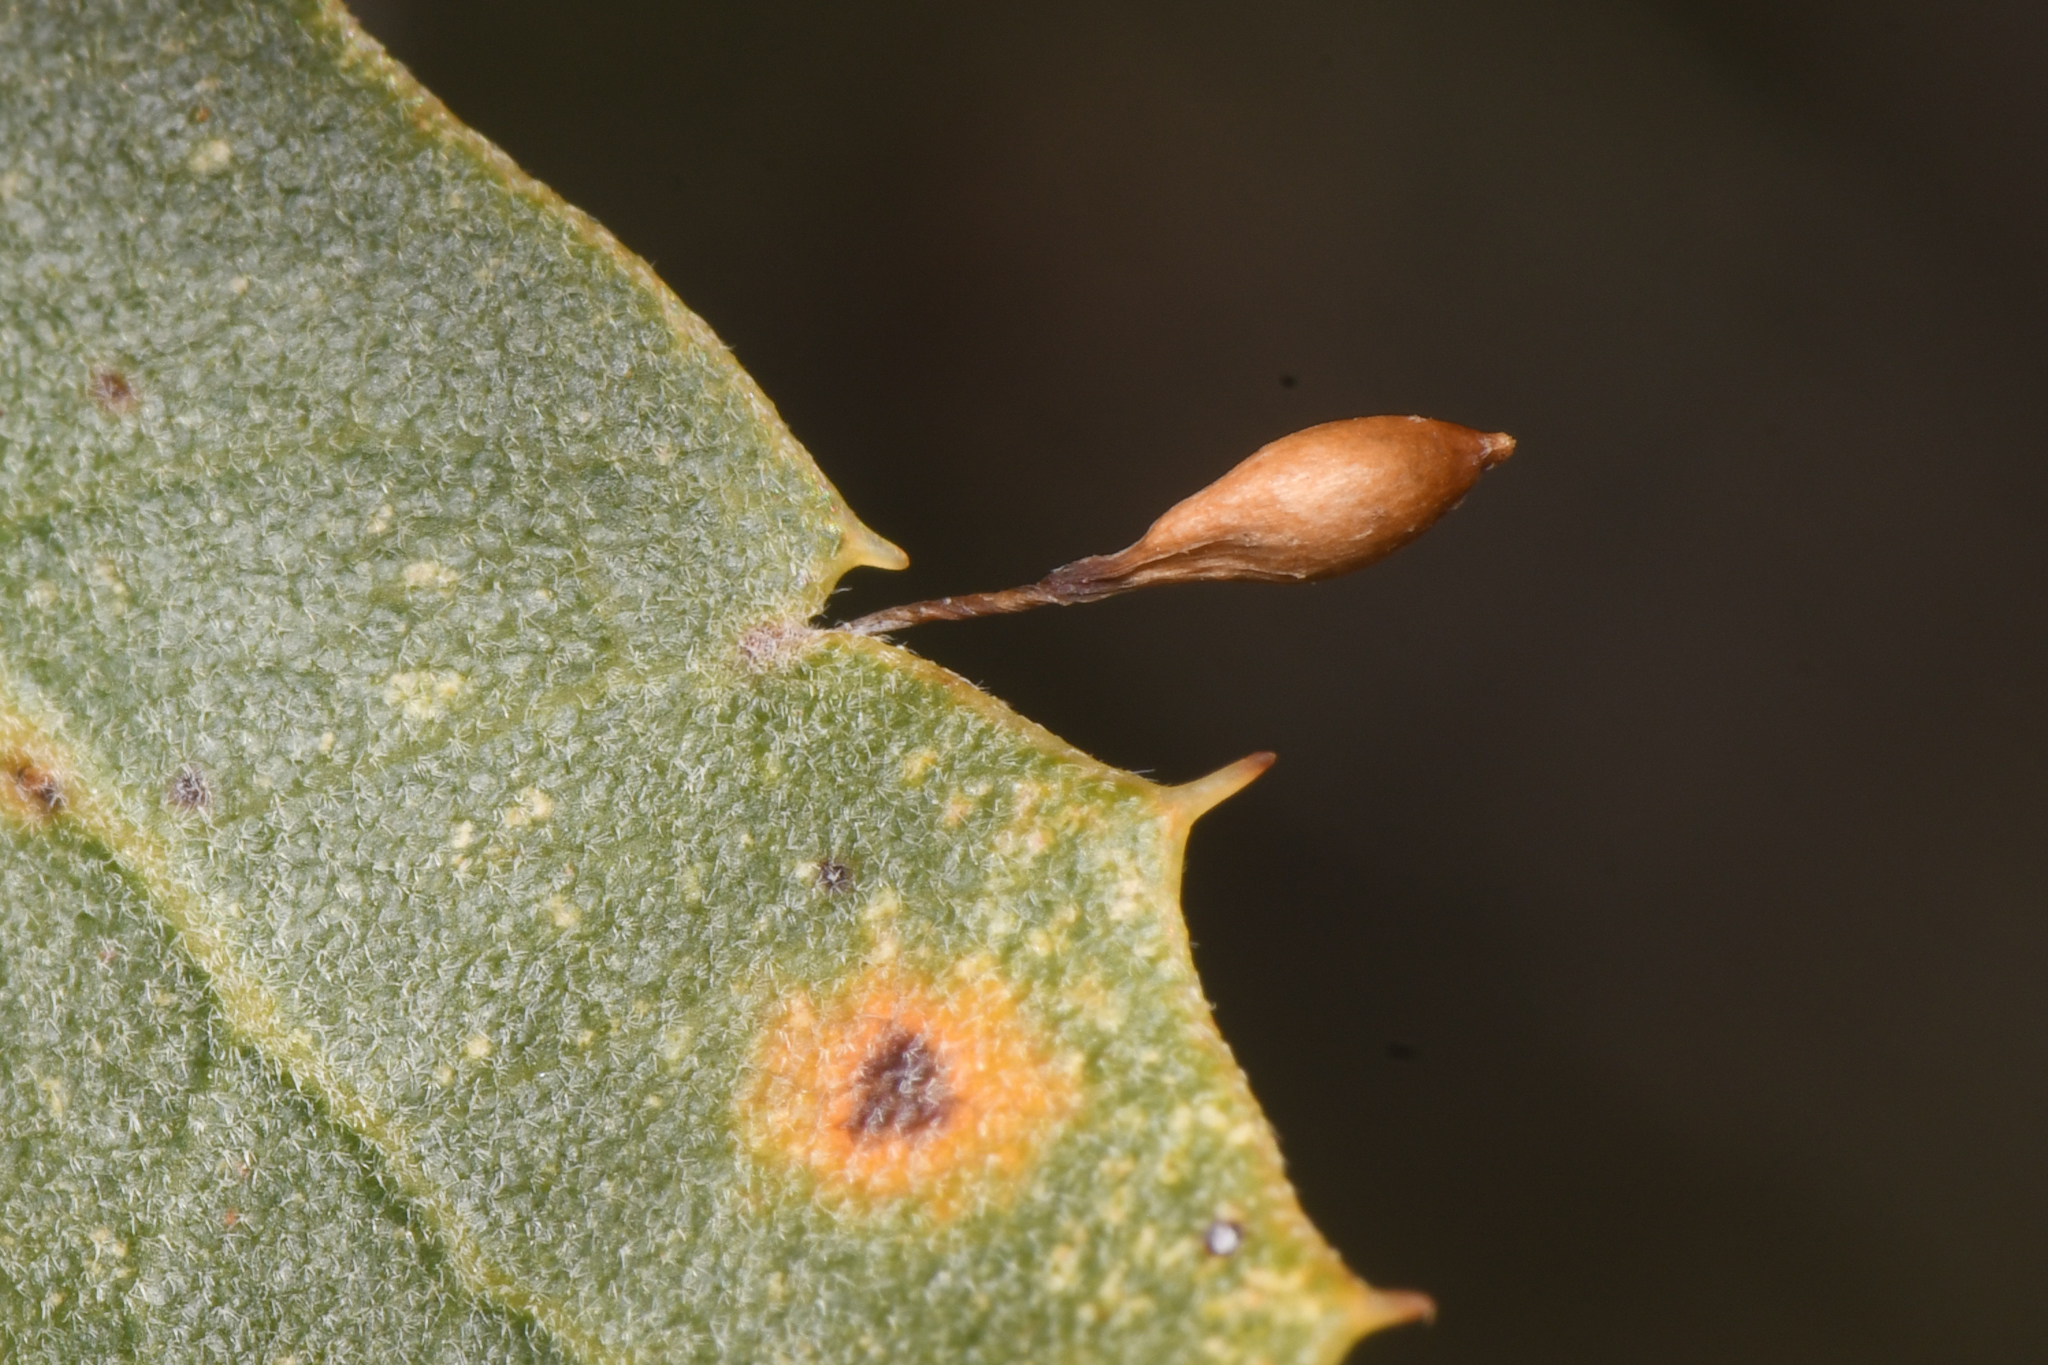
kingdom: Animalia
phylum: Arthropoda
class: Insecta
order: Hymenoptera
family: Cynipidae
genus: Andricus
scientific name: Andricus
